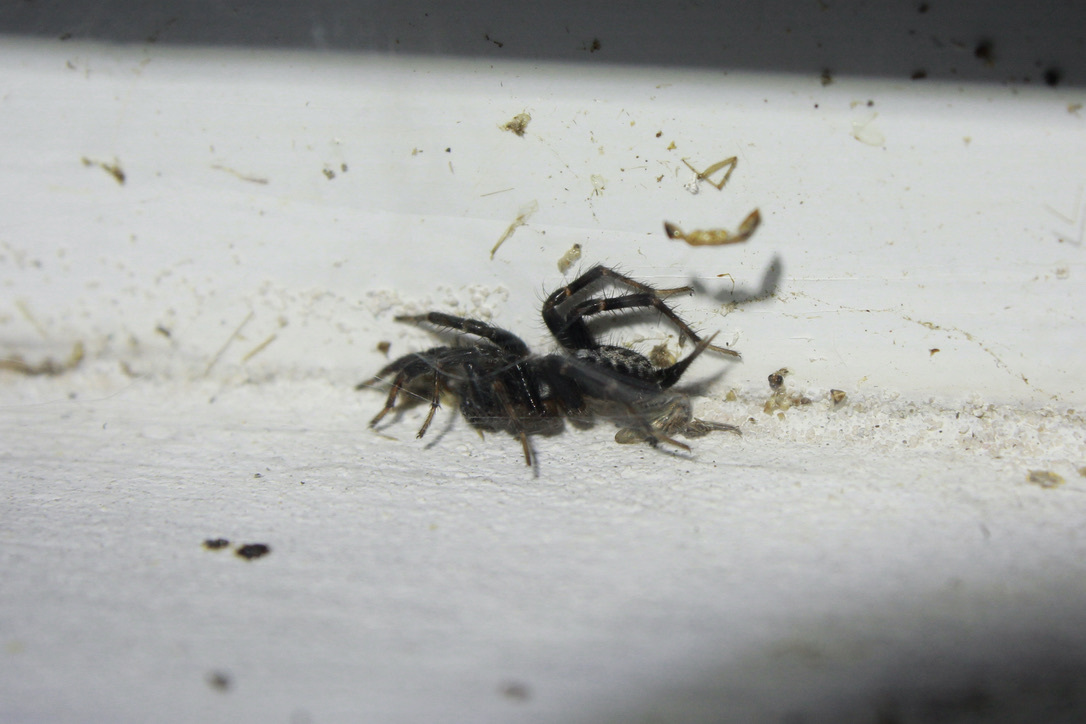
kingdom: Animalia
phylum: Arthropoda
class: Arachnida
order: Araneae
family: Ischnothelidae
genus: Ischnothele
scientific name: Ischnothele caudata
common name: Funnelweb spiders
